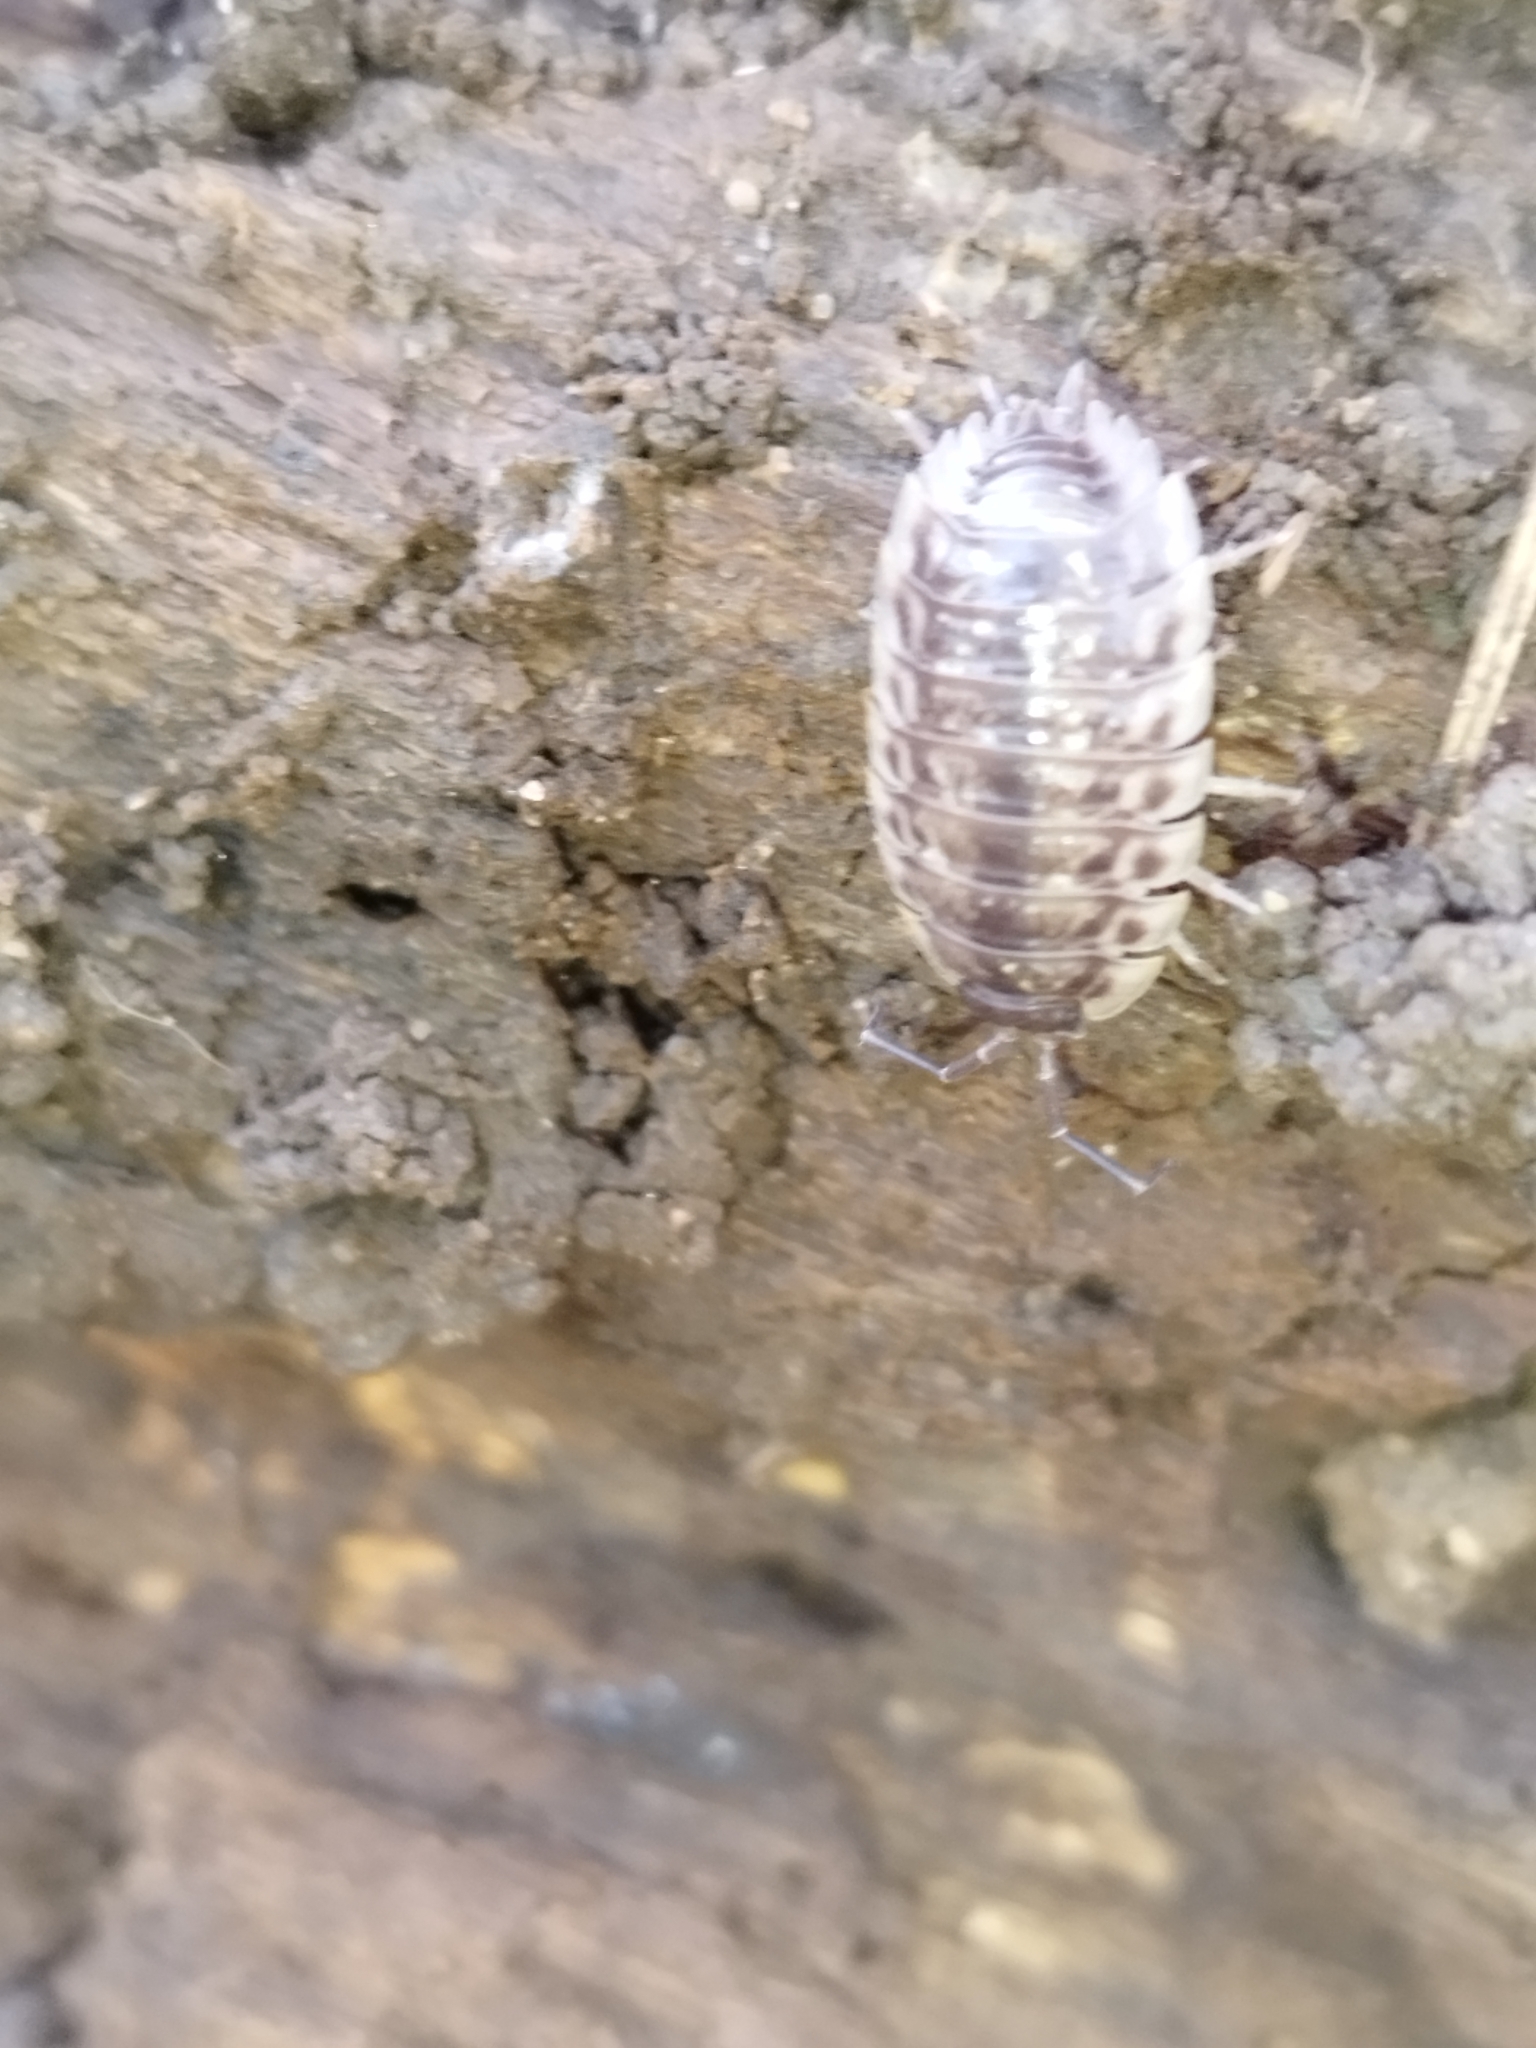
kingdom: Animalia
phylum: Arthropoda
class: Malacostraca
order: Isopoda
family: Oniscidae
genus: Oniscus
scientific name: Oniscus asellus
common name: Common shiny woodlouse
